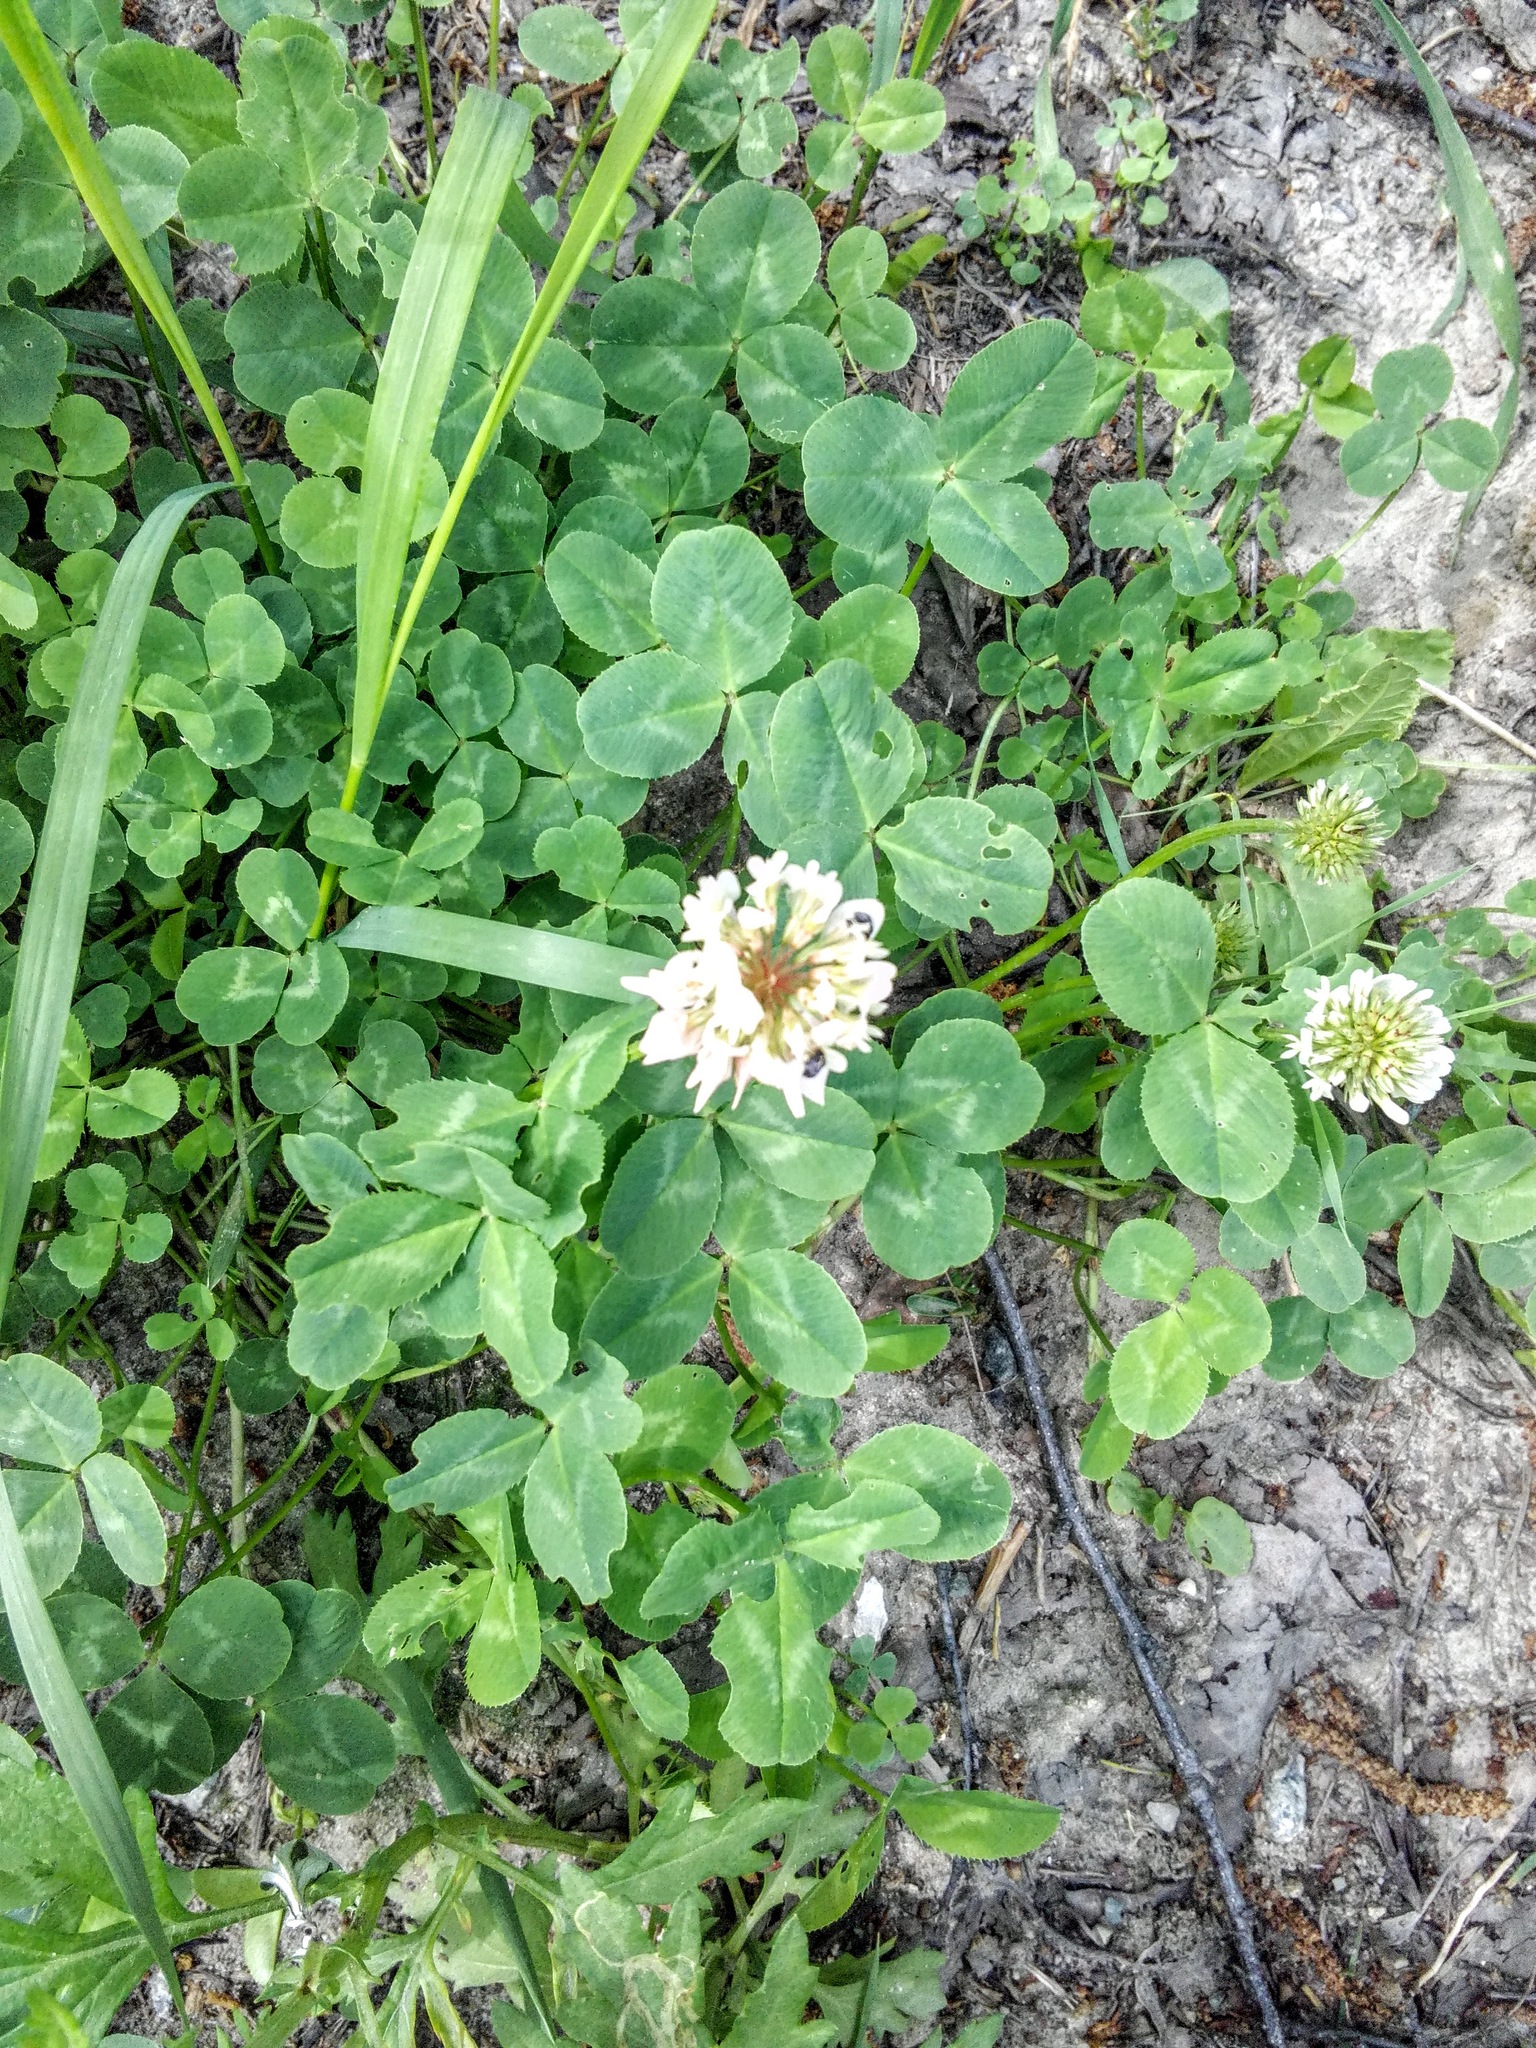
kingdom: Plantae
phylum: Tracheophyta
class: Magnoliopsida
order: Fabales
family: Fabaceae
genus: Trifolium
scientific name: Trifolium repens
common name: White clover
